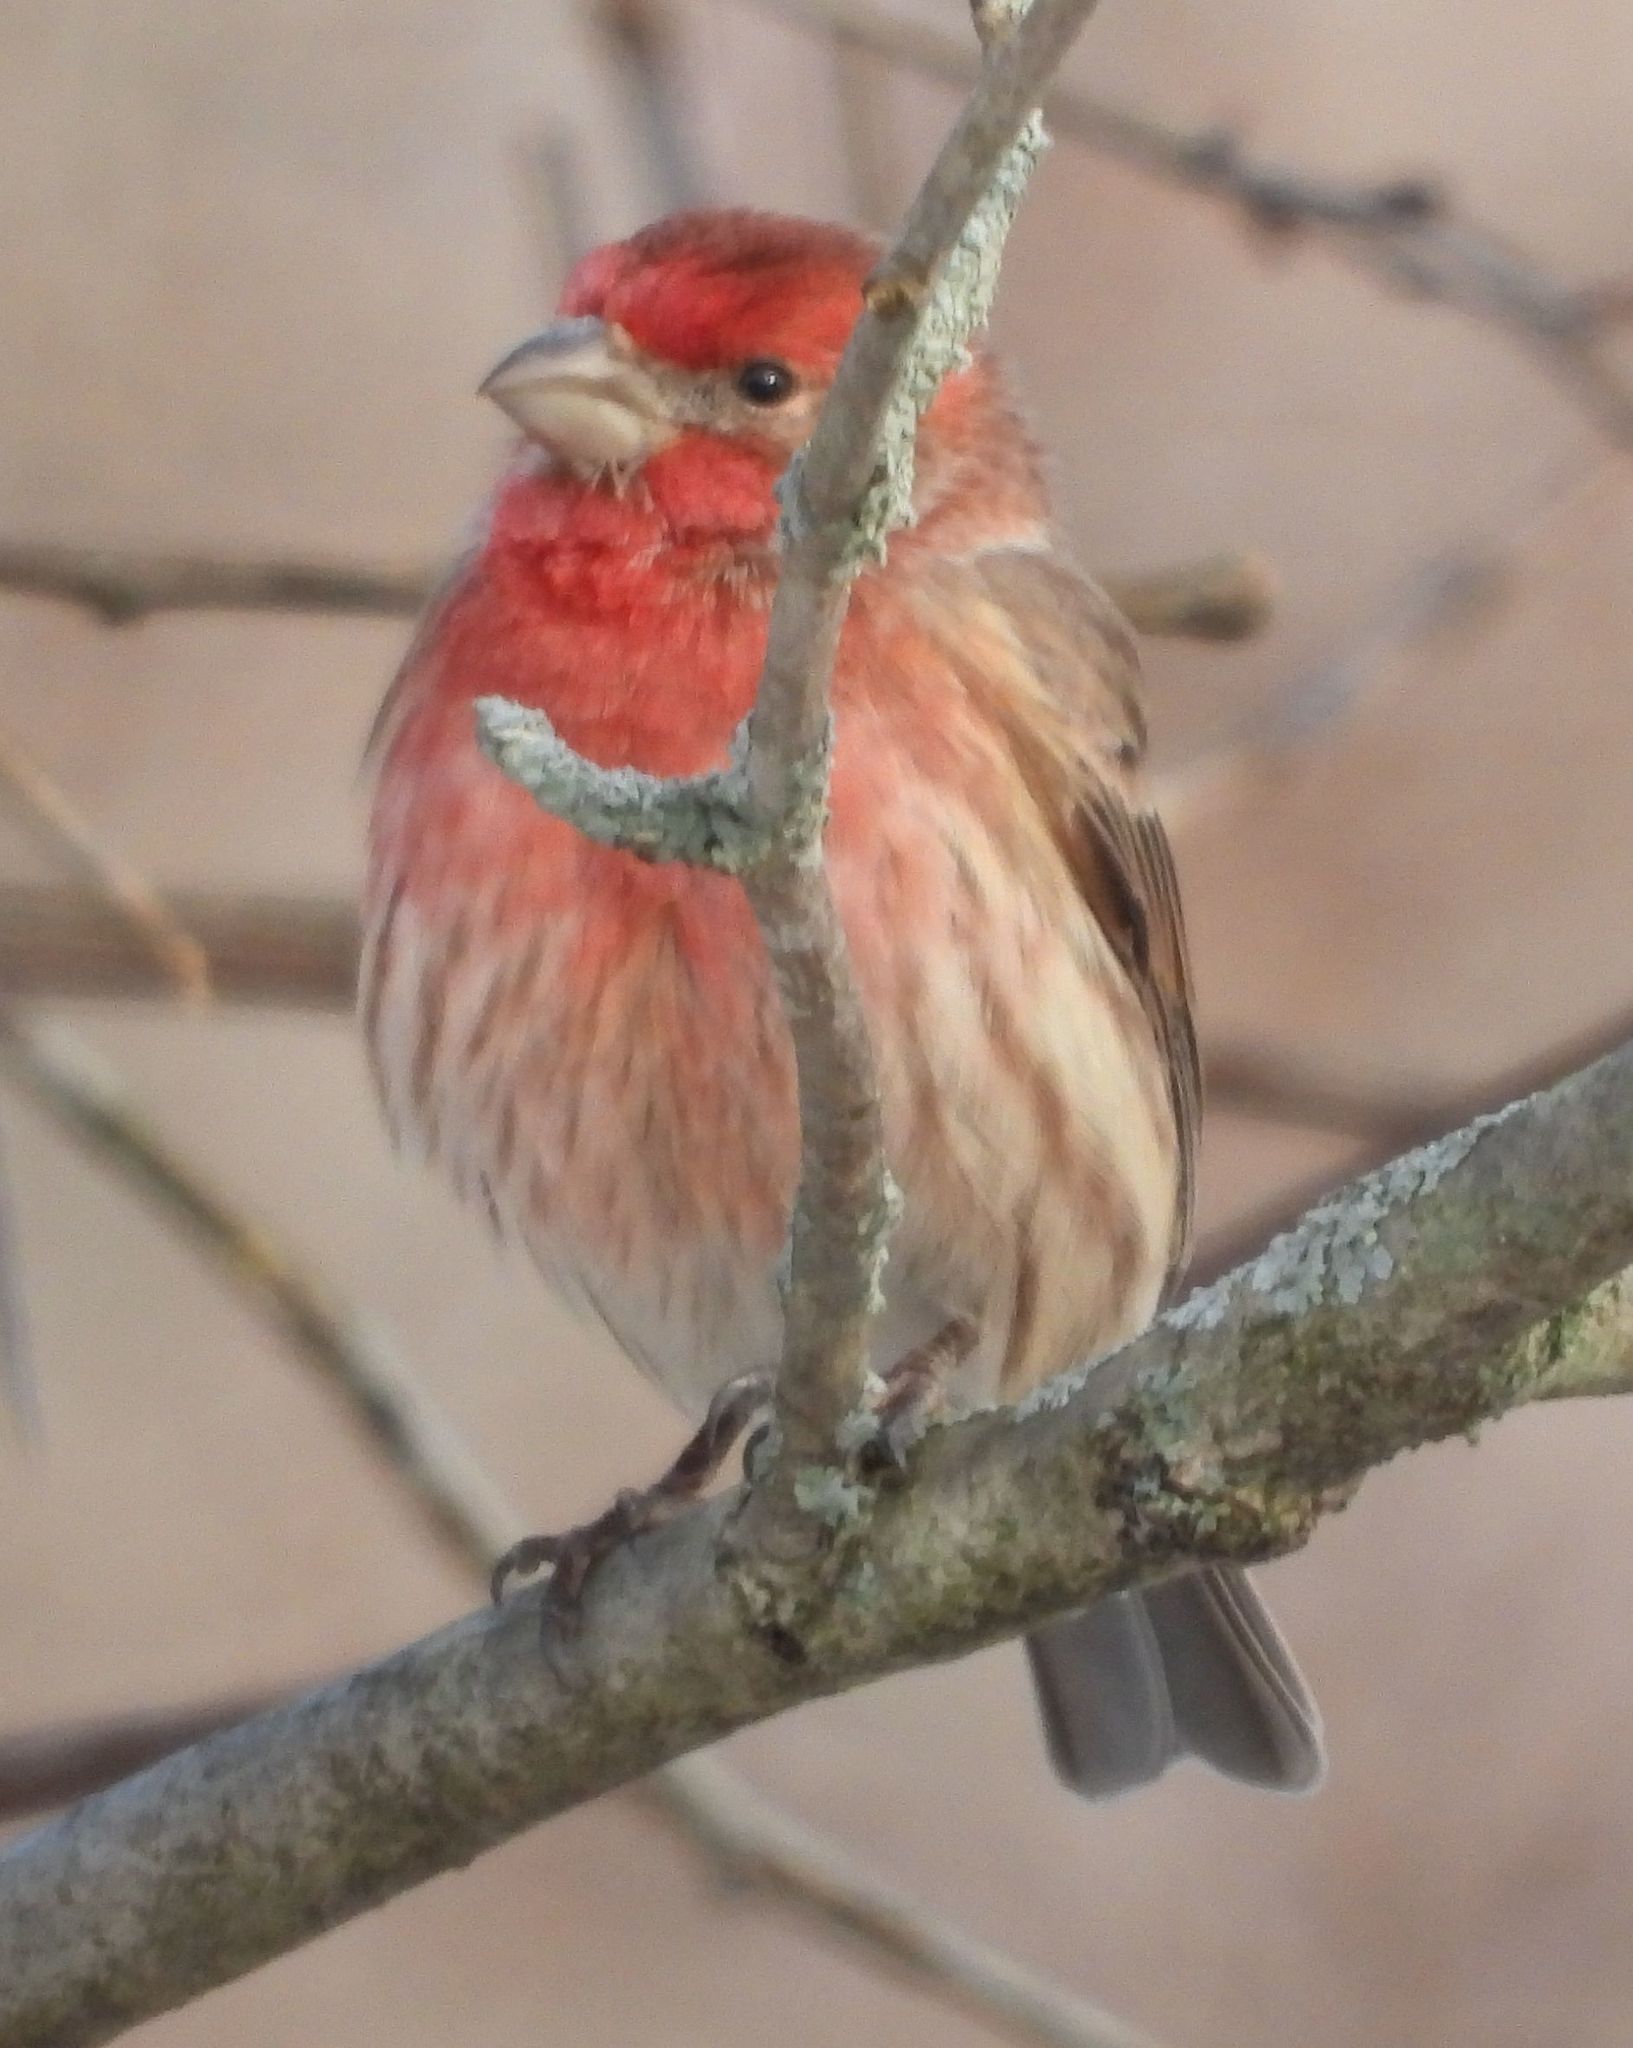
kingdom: Animalia
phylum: Chordata
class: Aves
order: Passeriformes
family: Fringillidae
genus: Haemorhous
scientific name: Haemorhous mexicanus
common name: House finch
